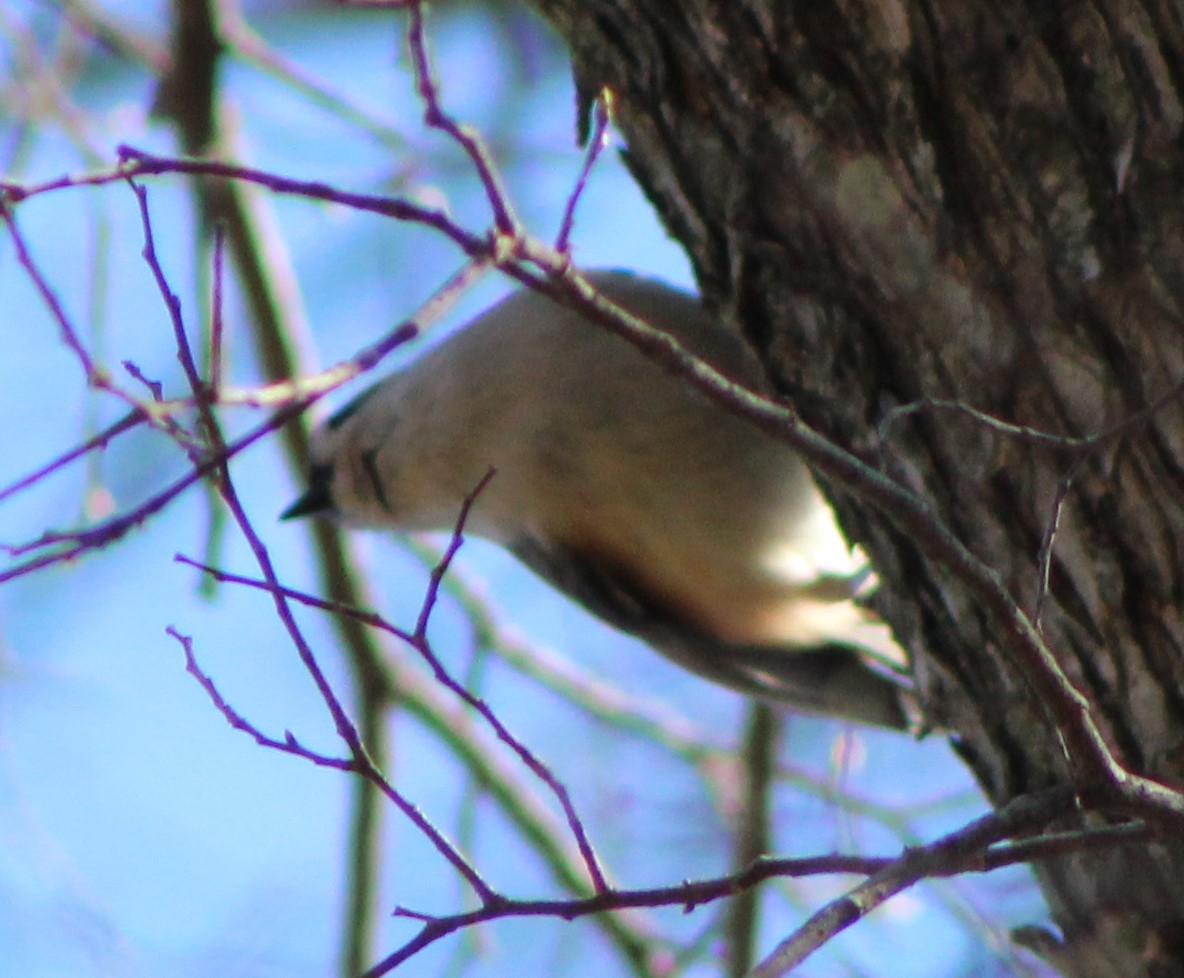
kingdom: Animalia
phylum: Chordata
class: Aves
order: Passeriformes
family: Paridae
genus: Baeolophus
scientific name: Baeolophus bicolor
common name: Tufted titmouse
